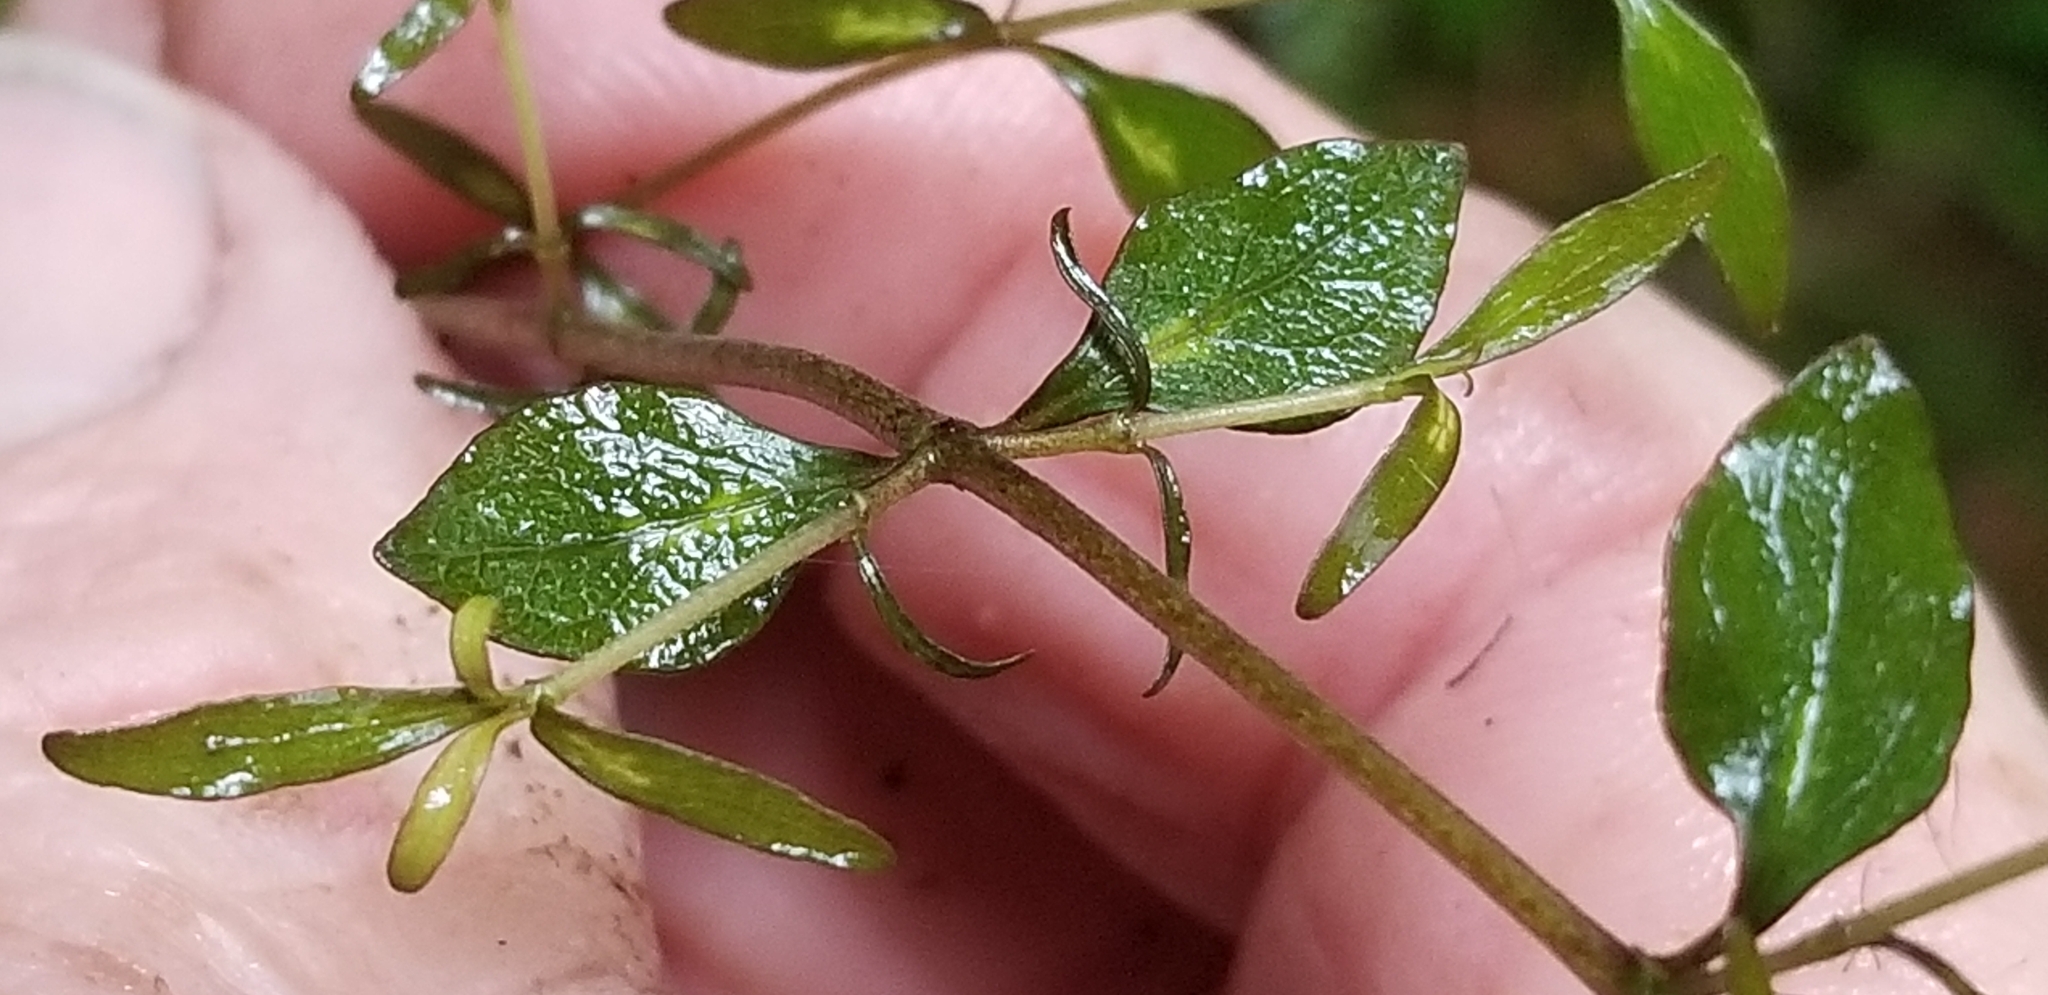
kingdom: Plantae
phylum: Tracheophyta
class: Magnoliopsida
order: Gentianales
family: Rubiaceae
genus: Coprosma
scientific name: Coprosma cunninghamii
